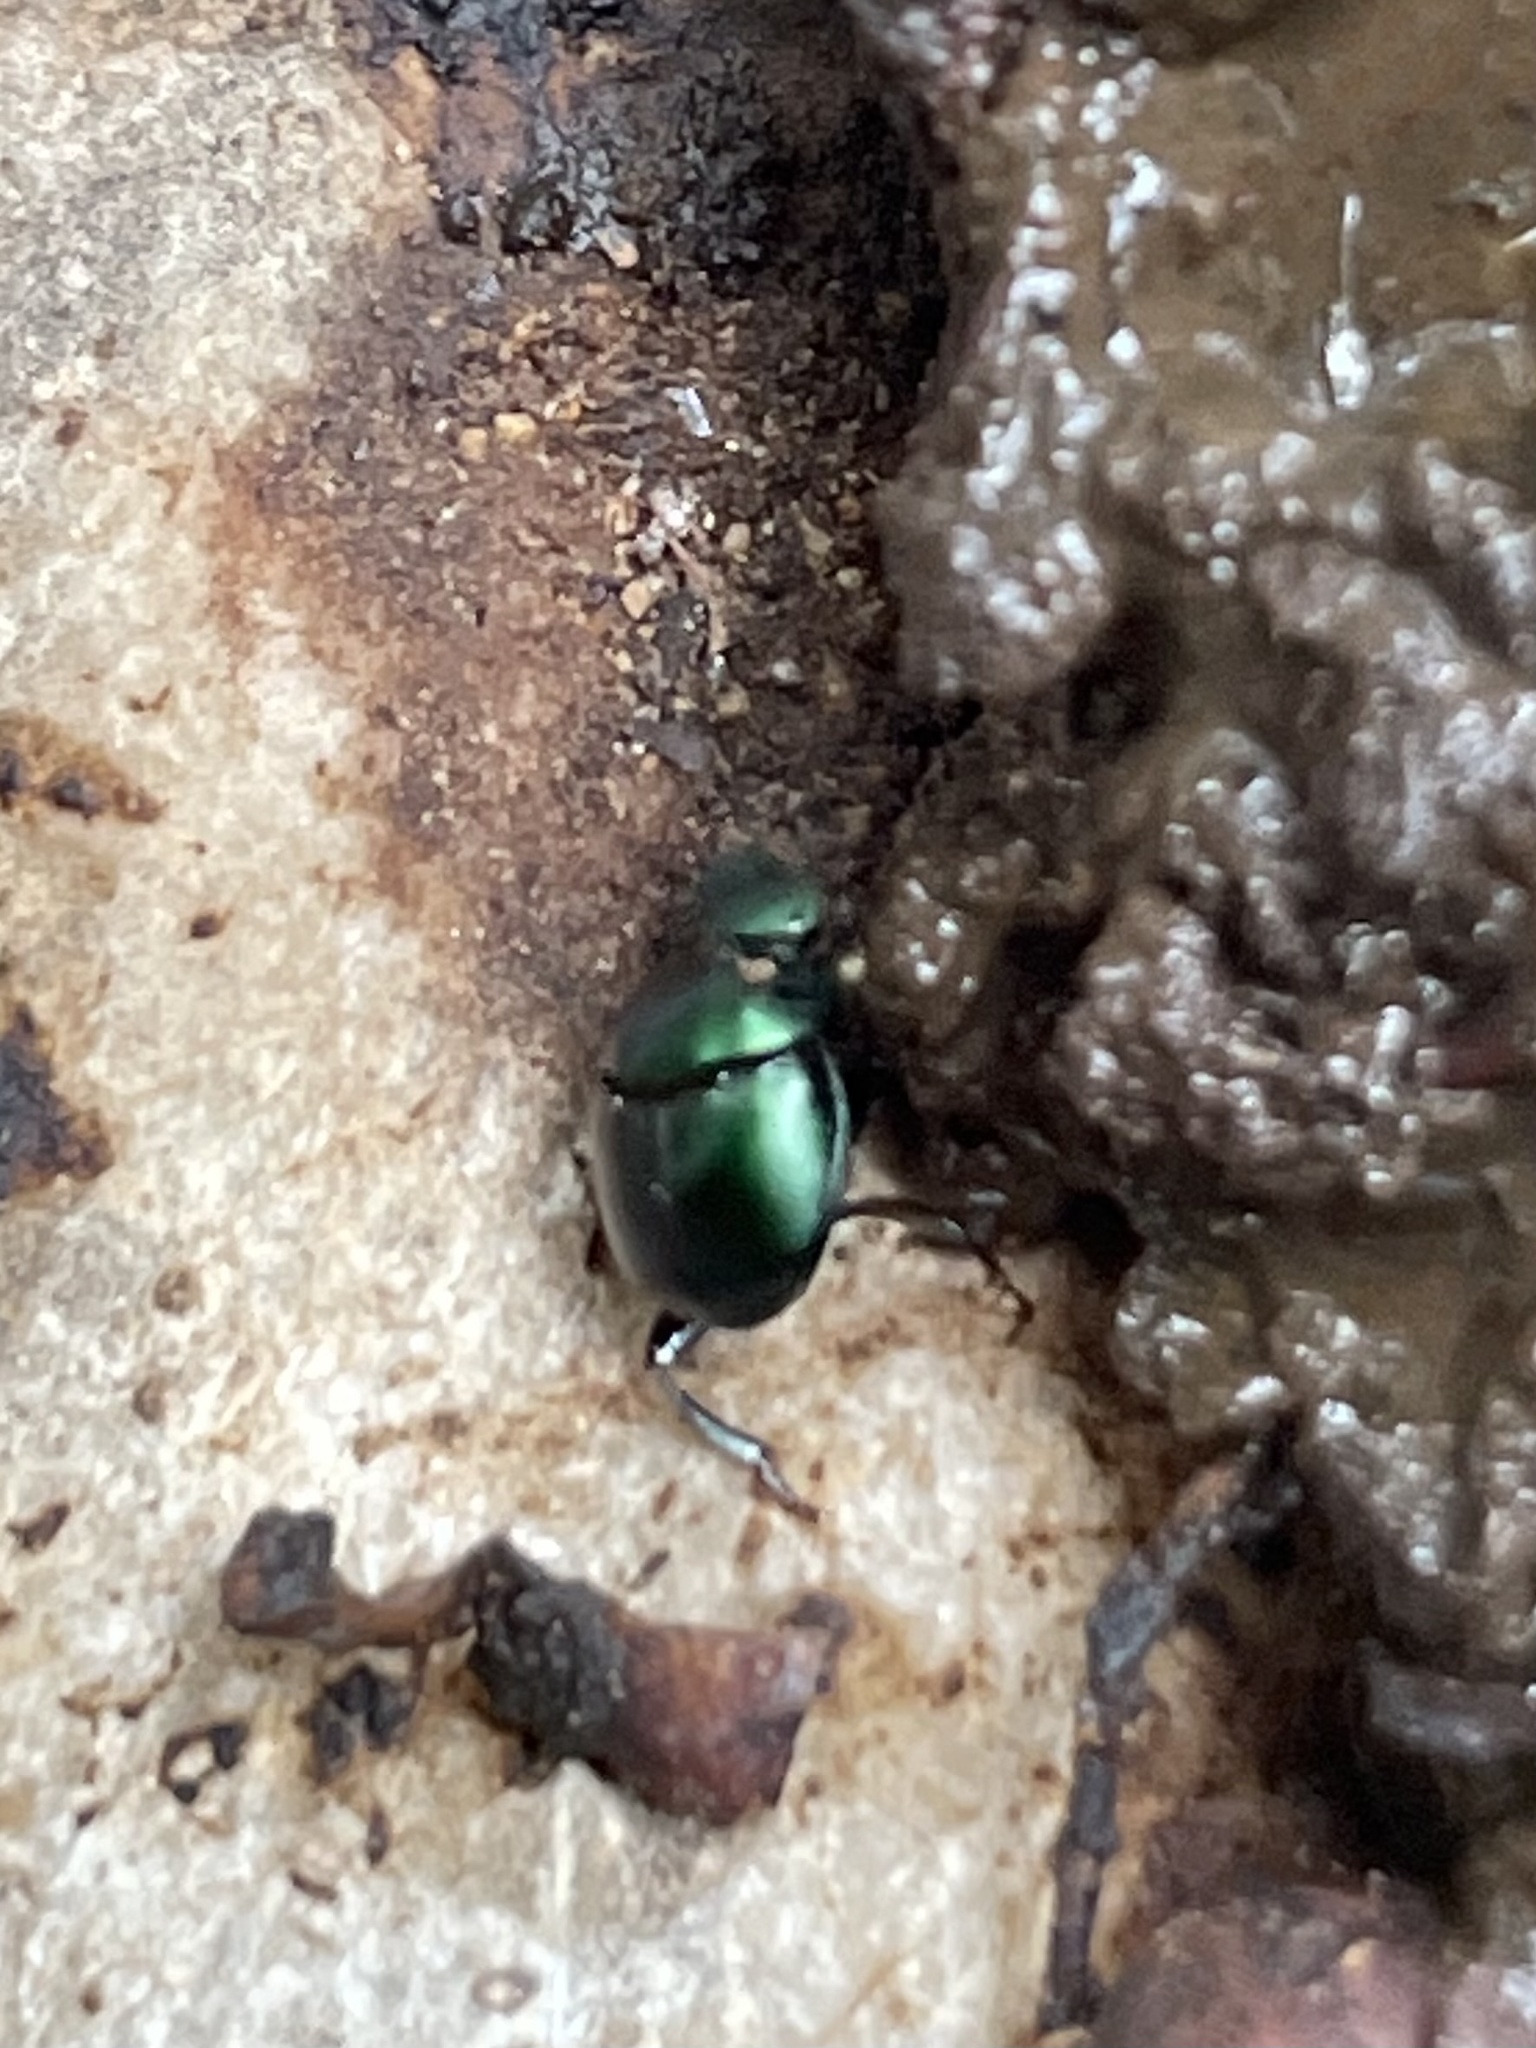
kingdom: Animalia
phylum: Arthropoda
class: Insecta
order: Coleoptera
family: Scarabaeidae
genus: Canthon
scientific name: Canthon viridis
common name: Tumblebug
